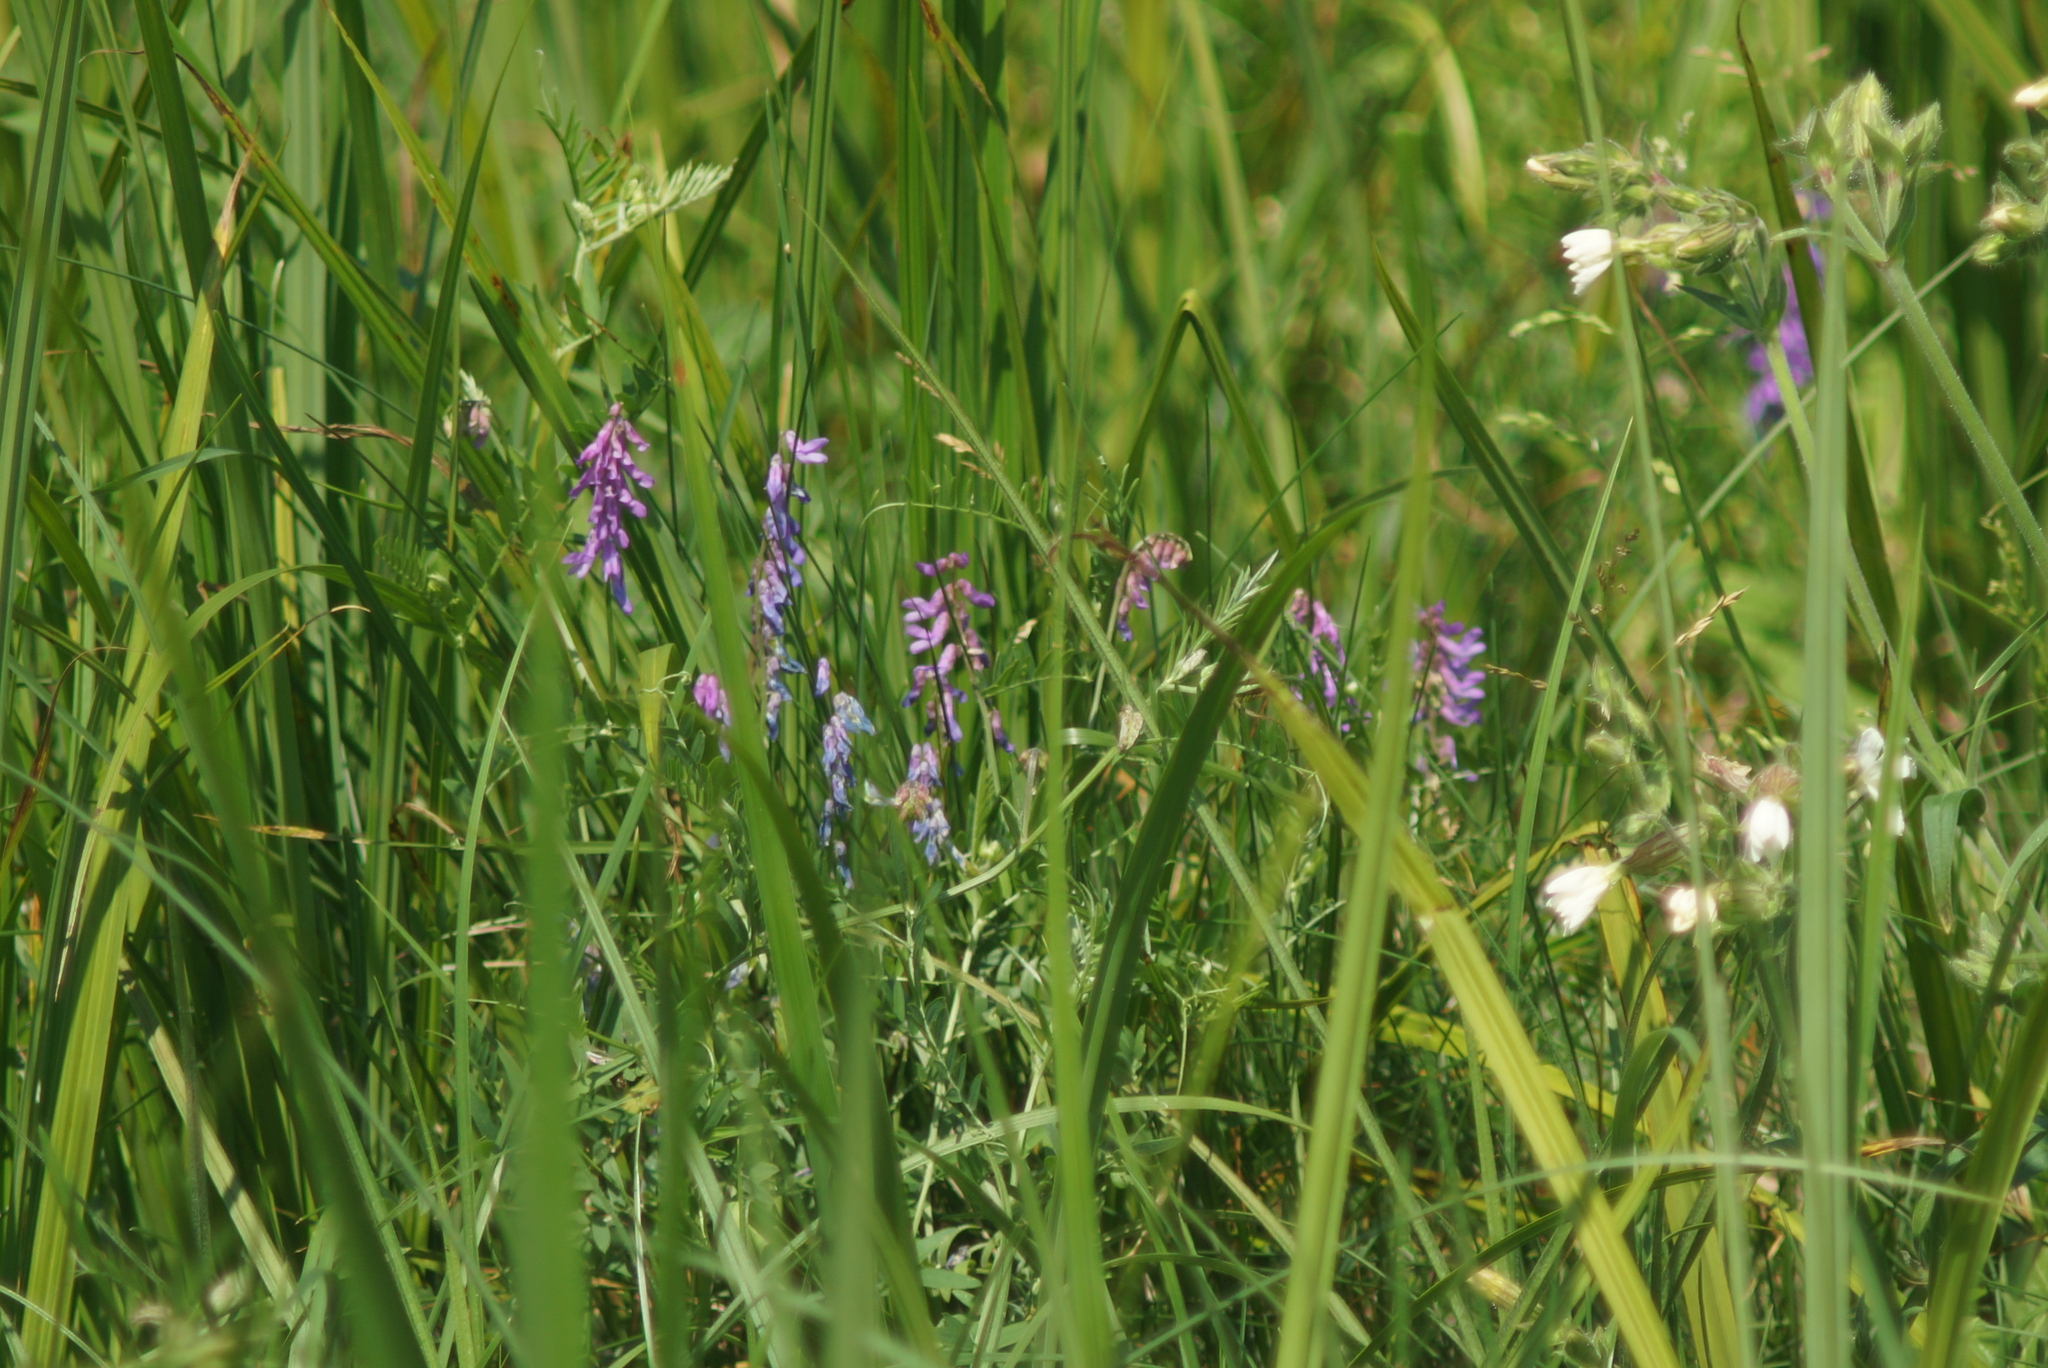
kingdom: Plantae
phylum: Tracheophyta
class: Magnoliopsida
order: Fabales
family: Fabaceae
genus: Vicia
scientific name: Vicia cracca
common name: Bird vetch
